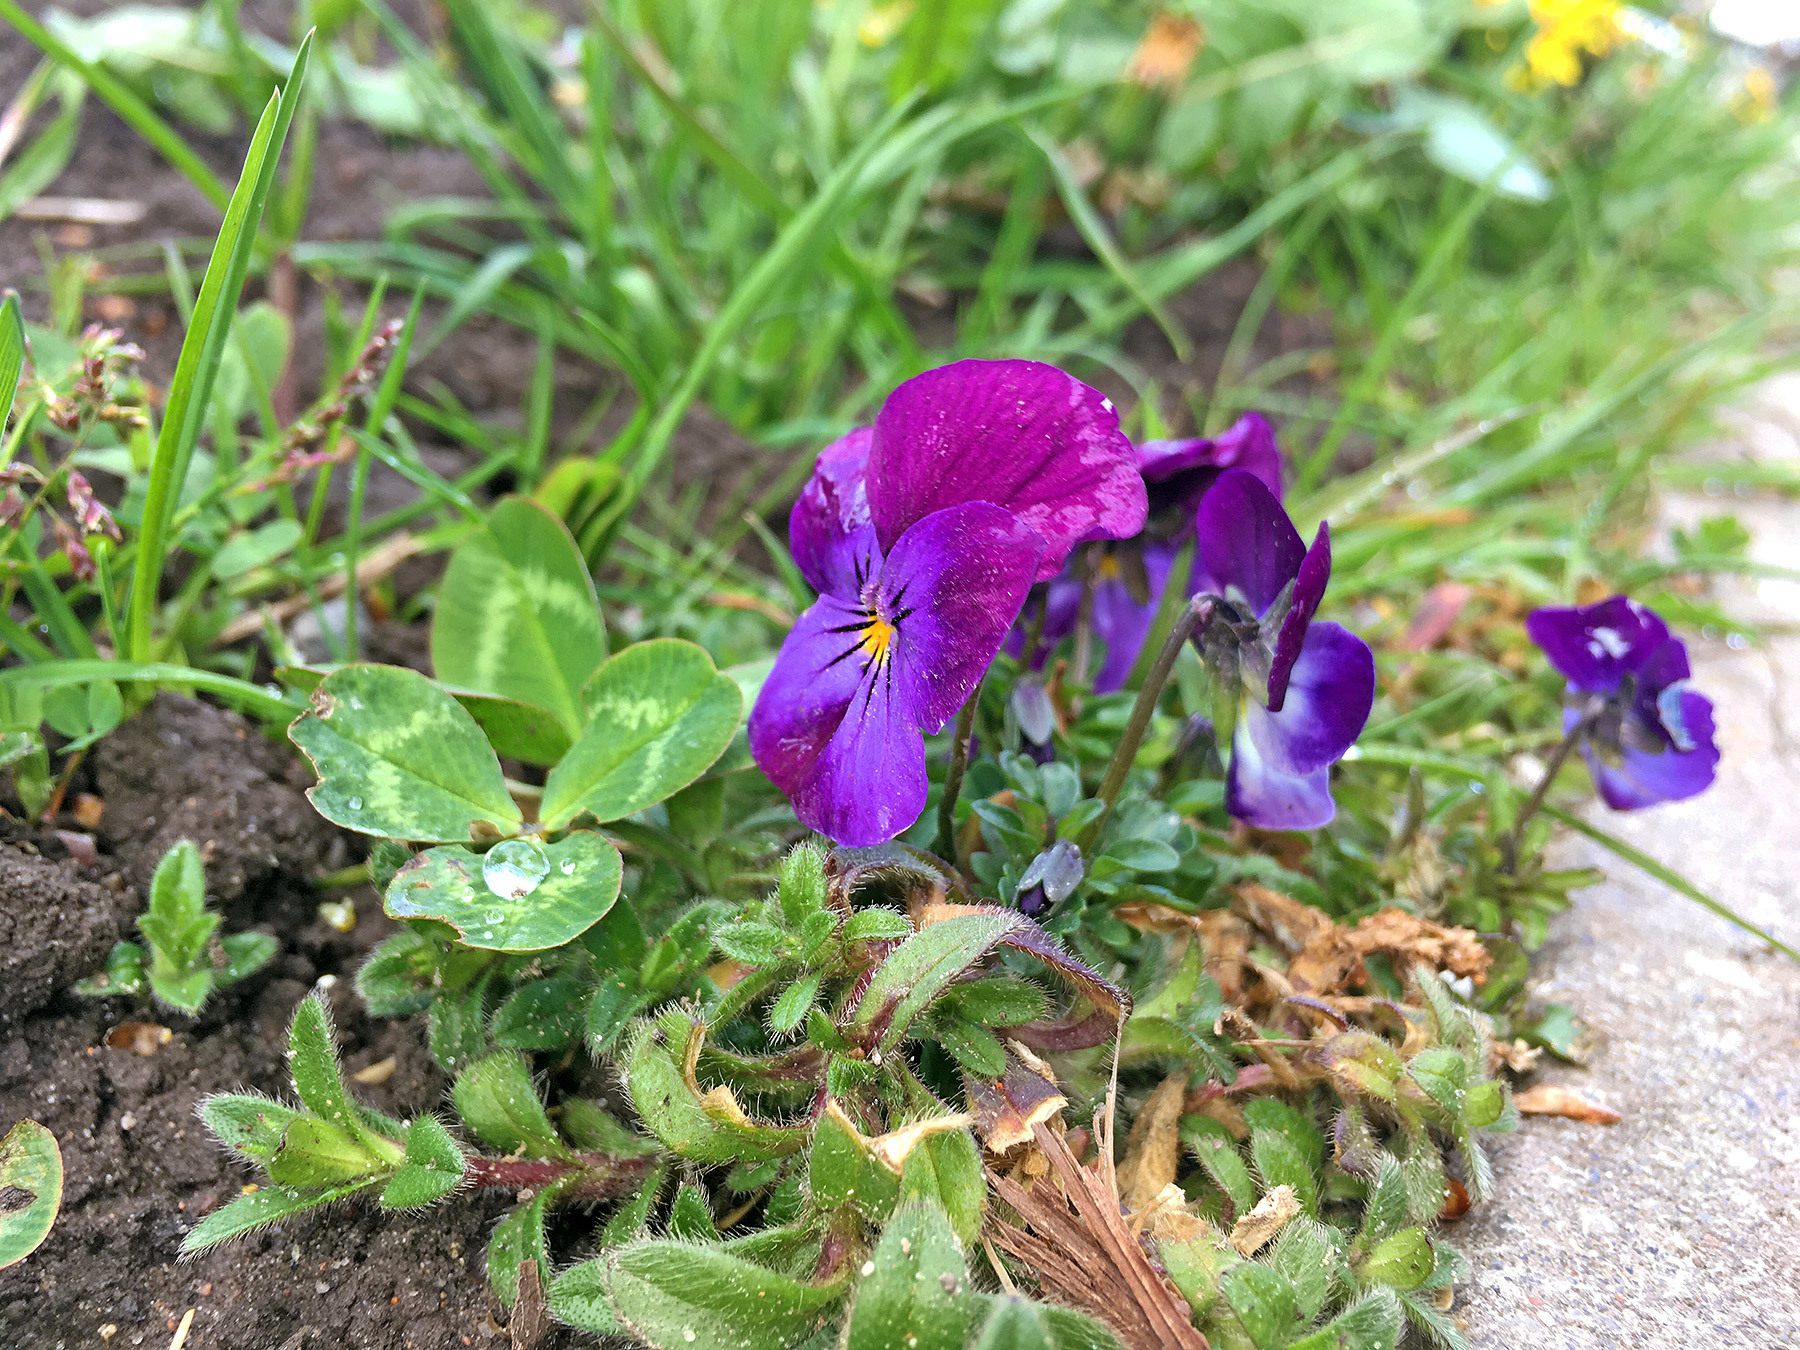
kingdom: Plantae
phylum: Tracheophyta
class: Magnoliopsida
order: Malpighiales
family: Violaceae
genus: Viola
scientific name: Viola wittrockiana
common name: Garden pansy
